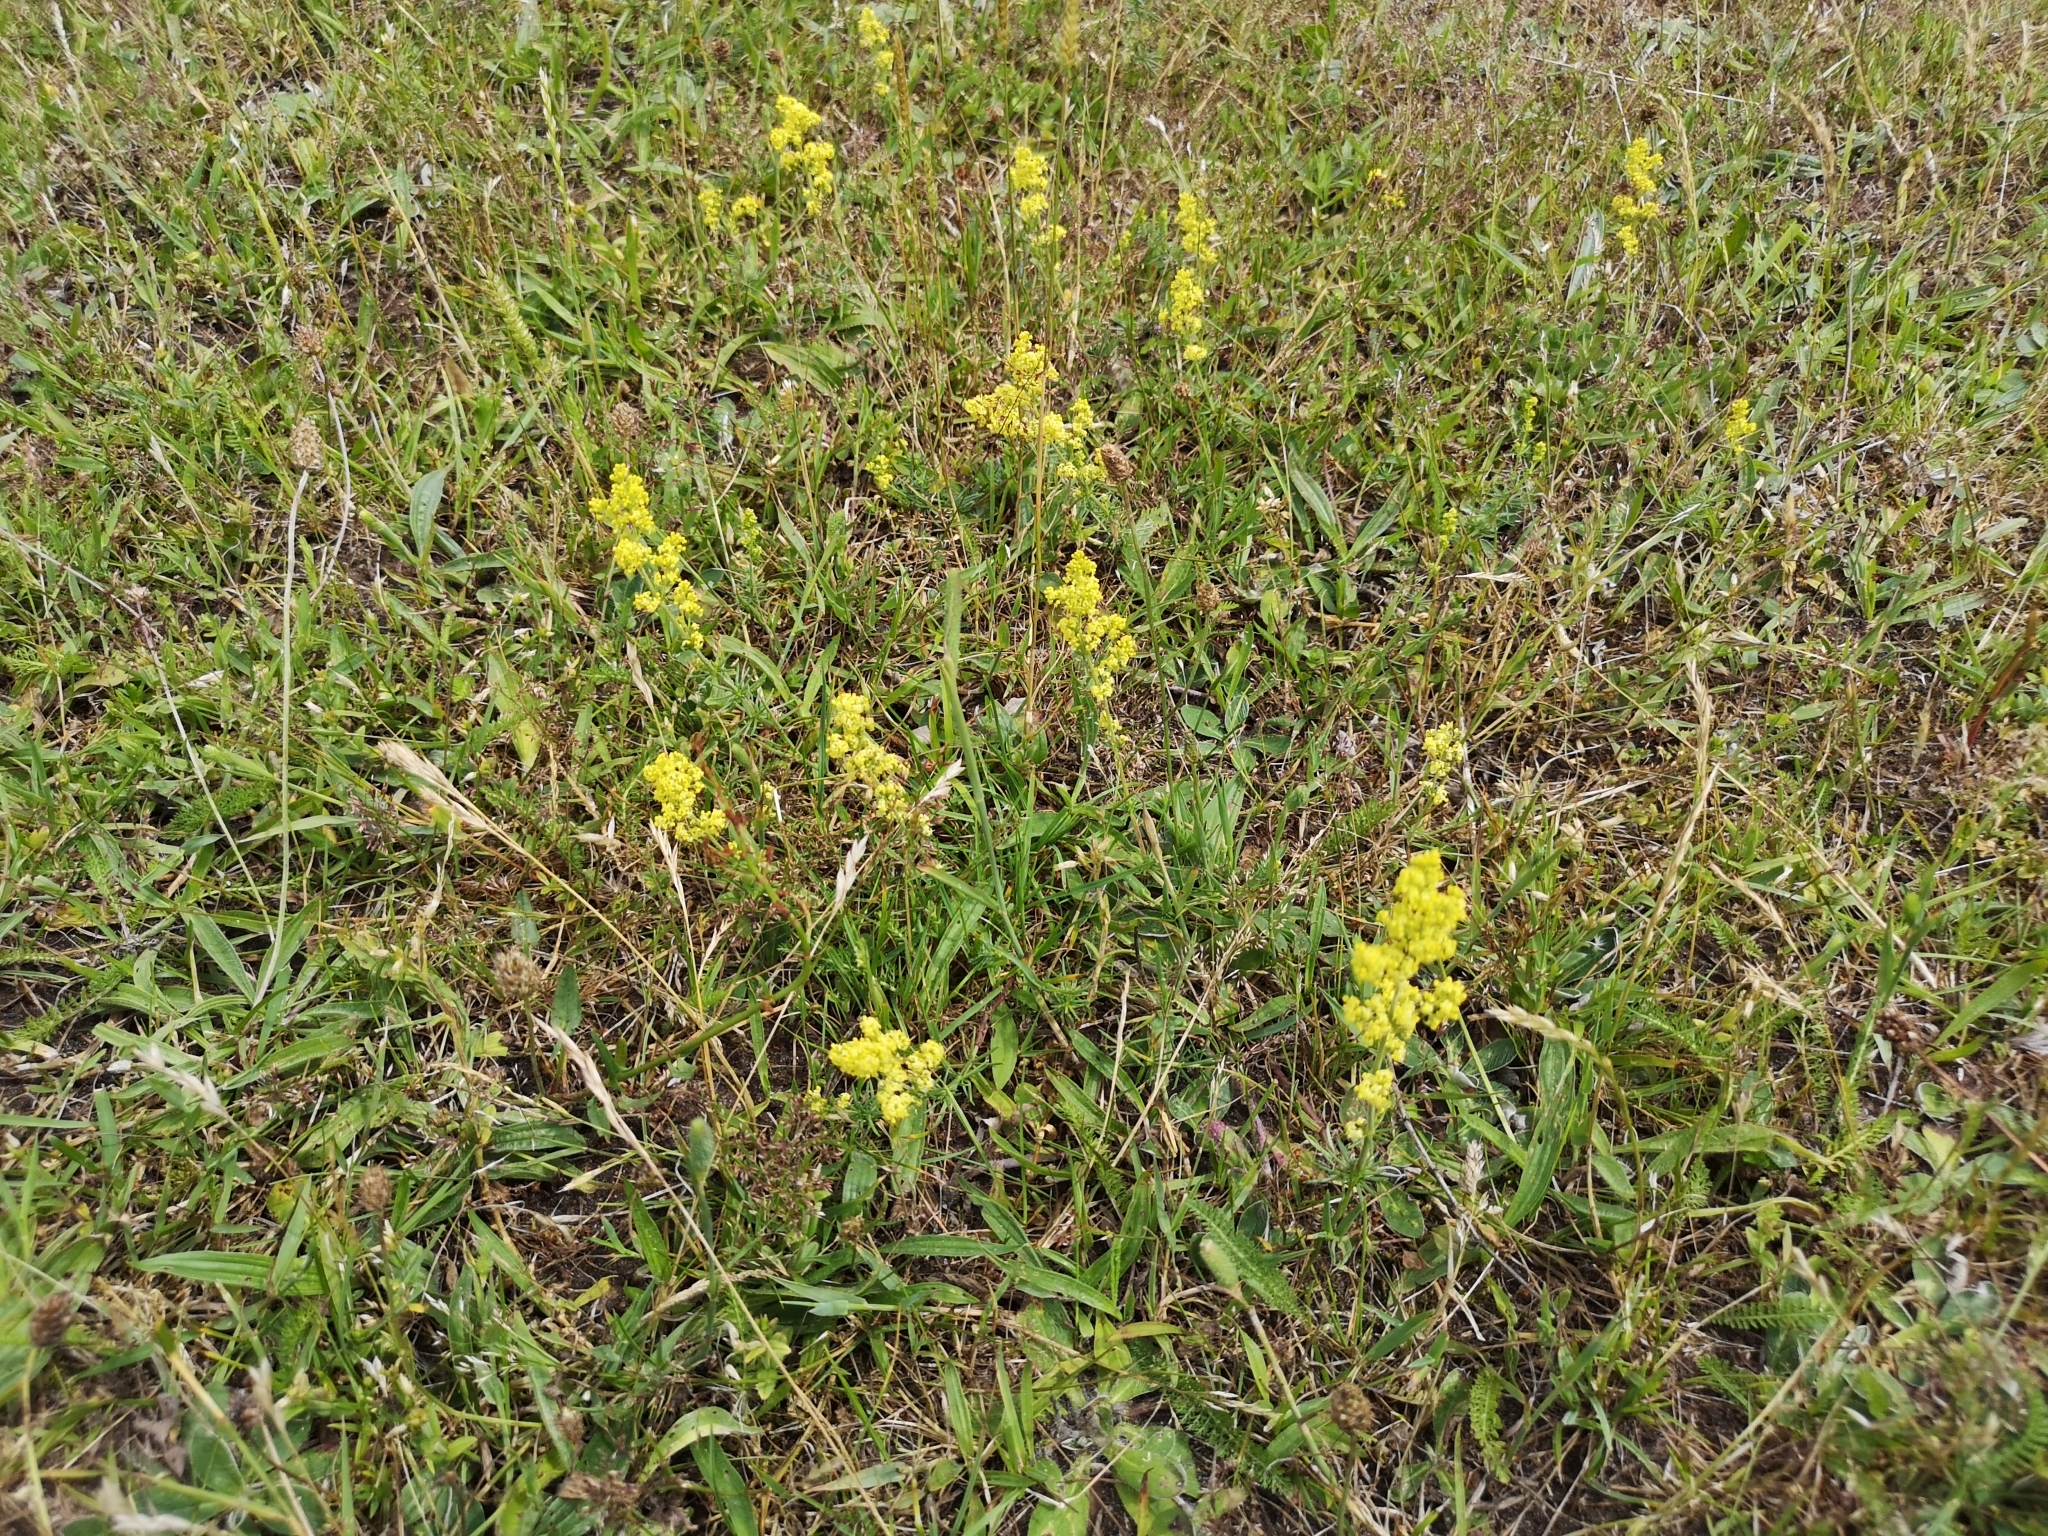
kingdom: Plantae
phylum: Tracheophyta
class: Magnoliopsida
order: Gentianales
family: Rubiaceae
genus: Galium
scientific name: Galium verum
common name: Lady's bedstraw
